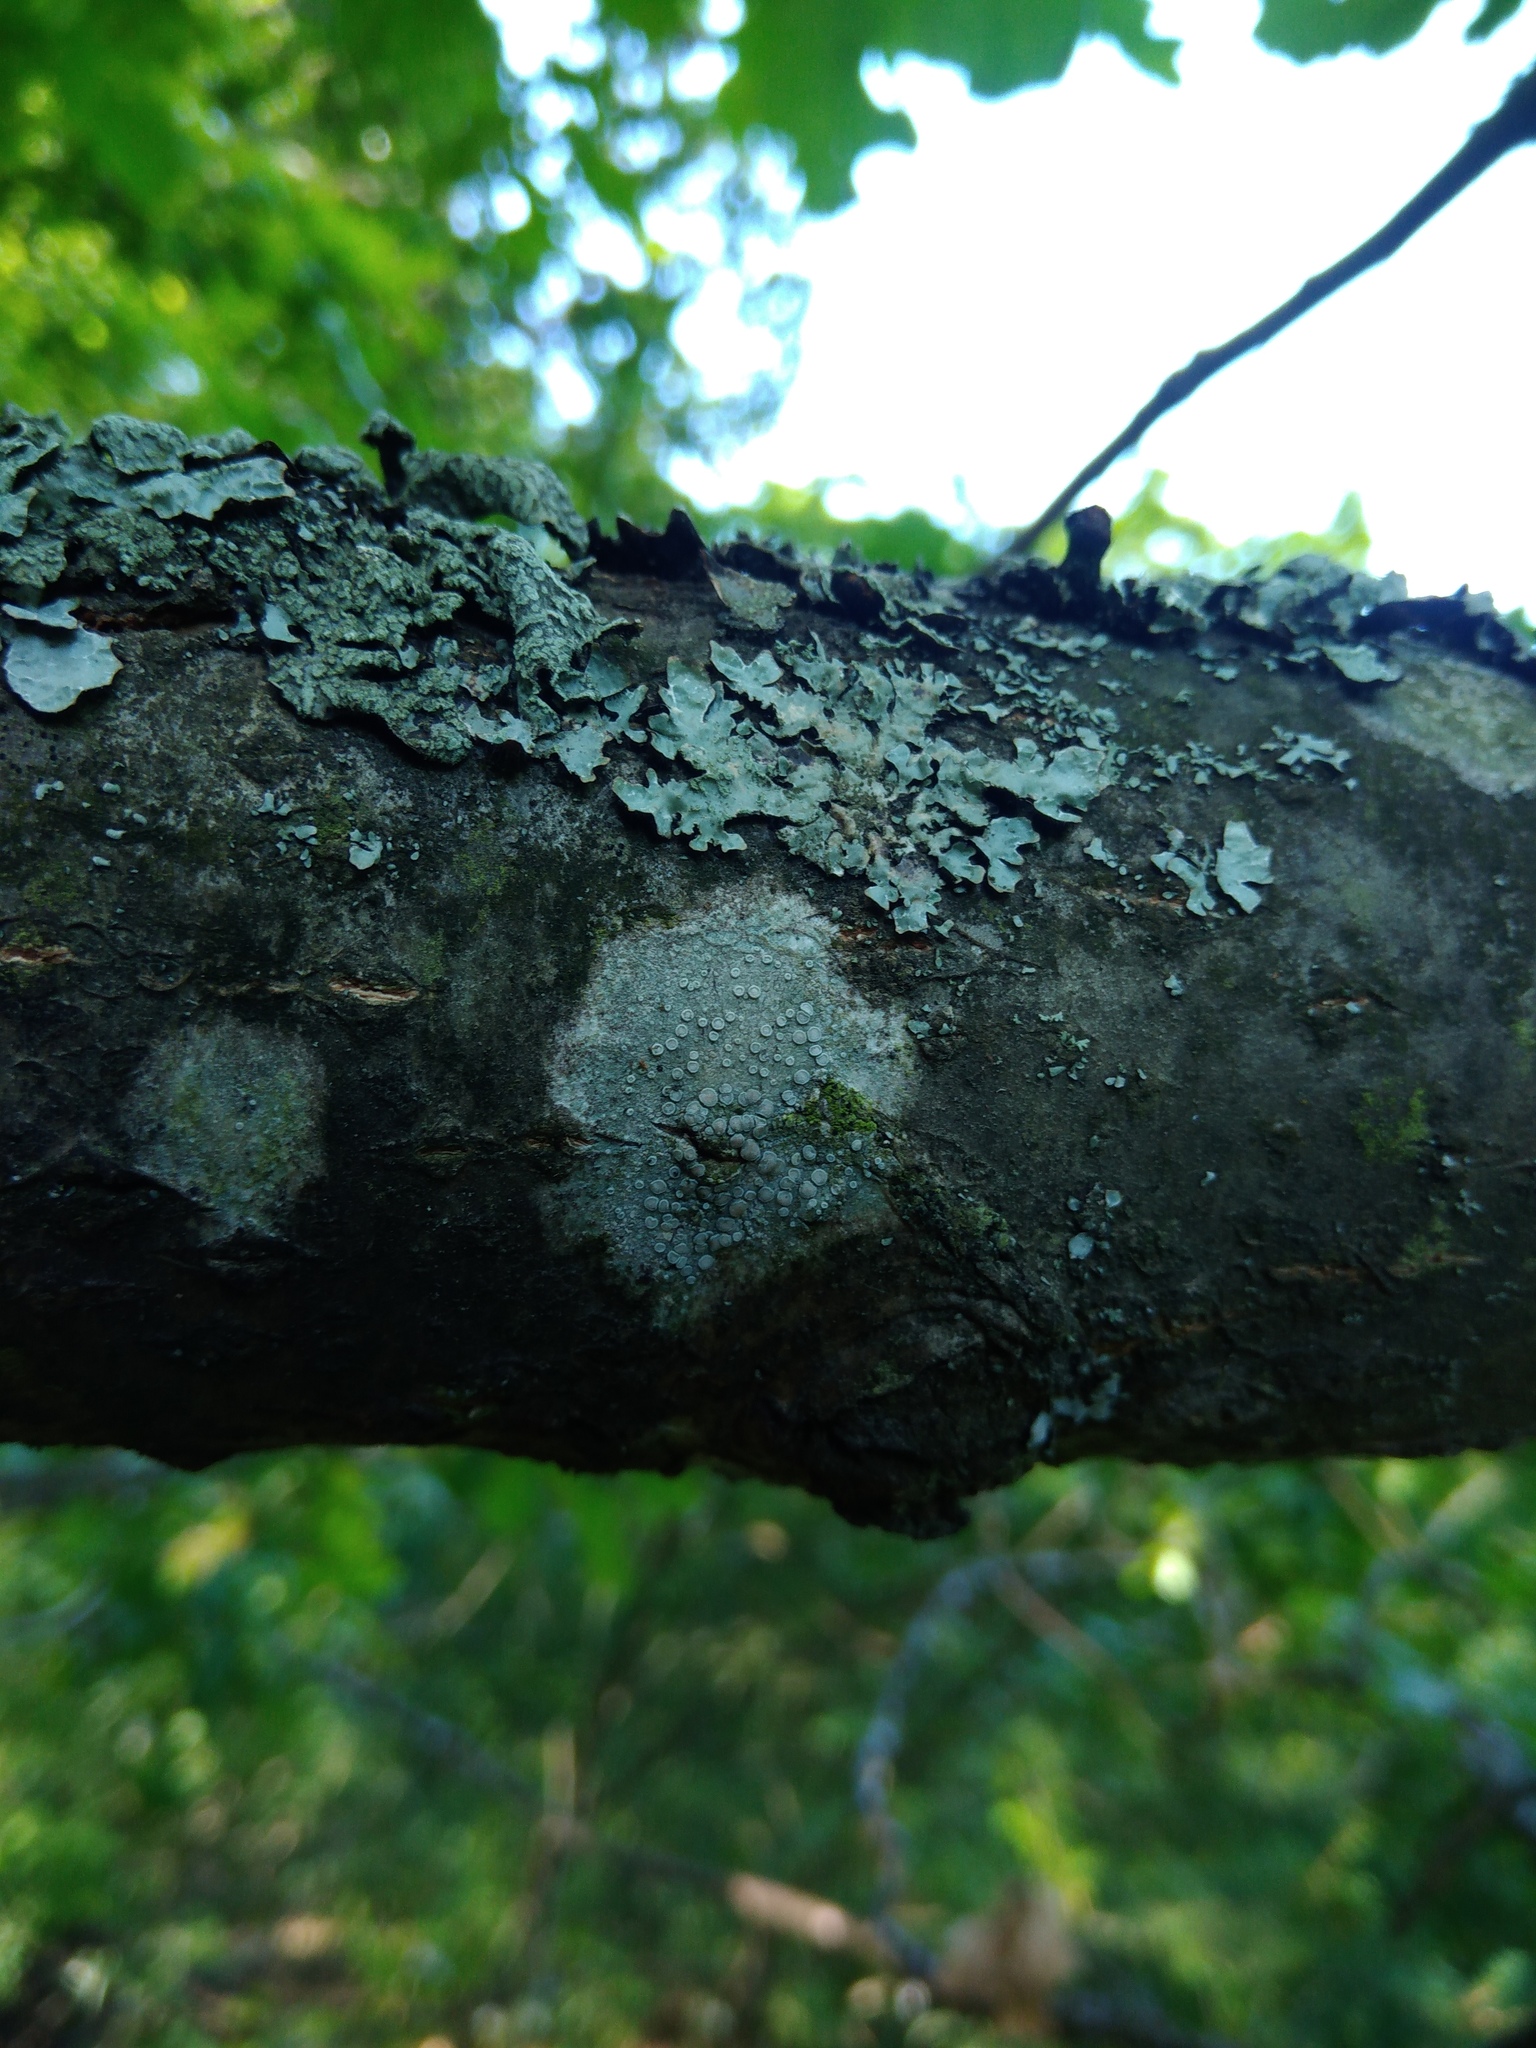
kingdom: Fungi
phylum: Ascomycota
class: Lecanoromycetes
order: Lecanorales
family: Lecanoraceae
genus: Glaucomaria
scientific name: Glaucomaria carpinea
